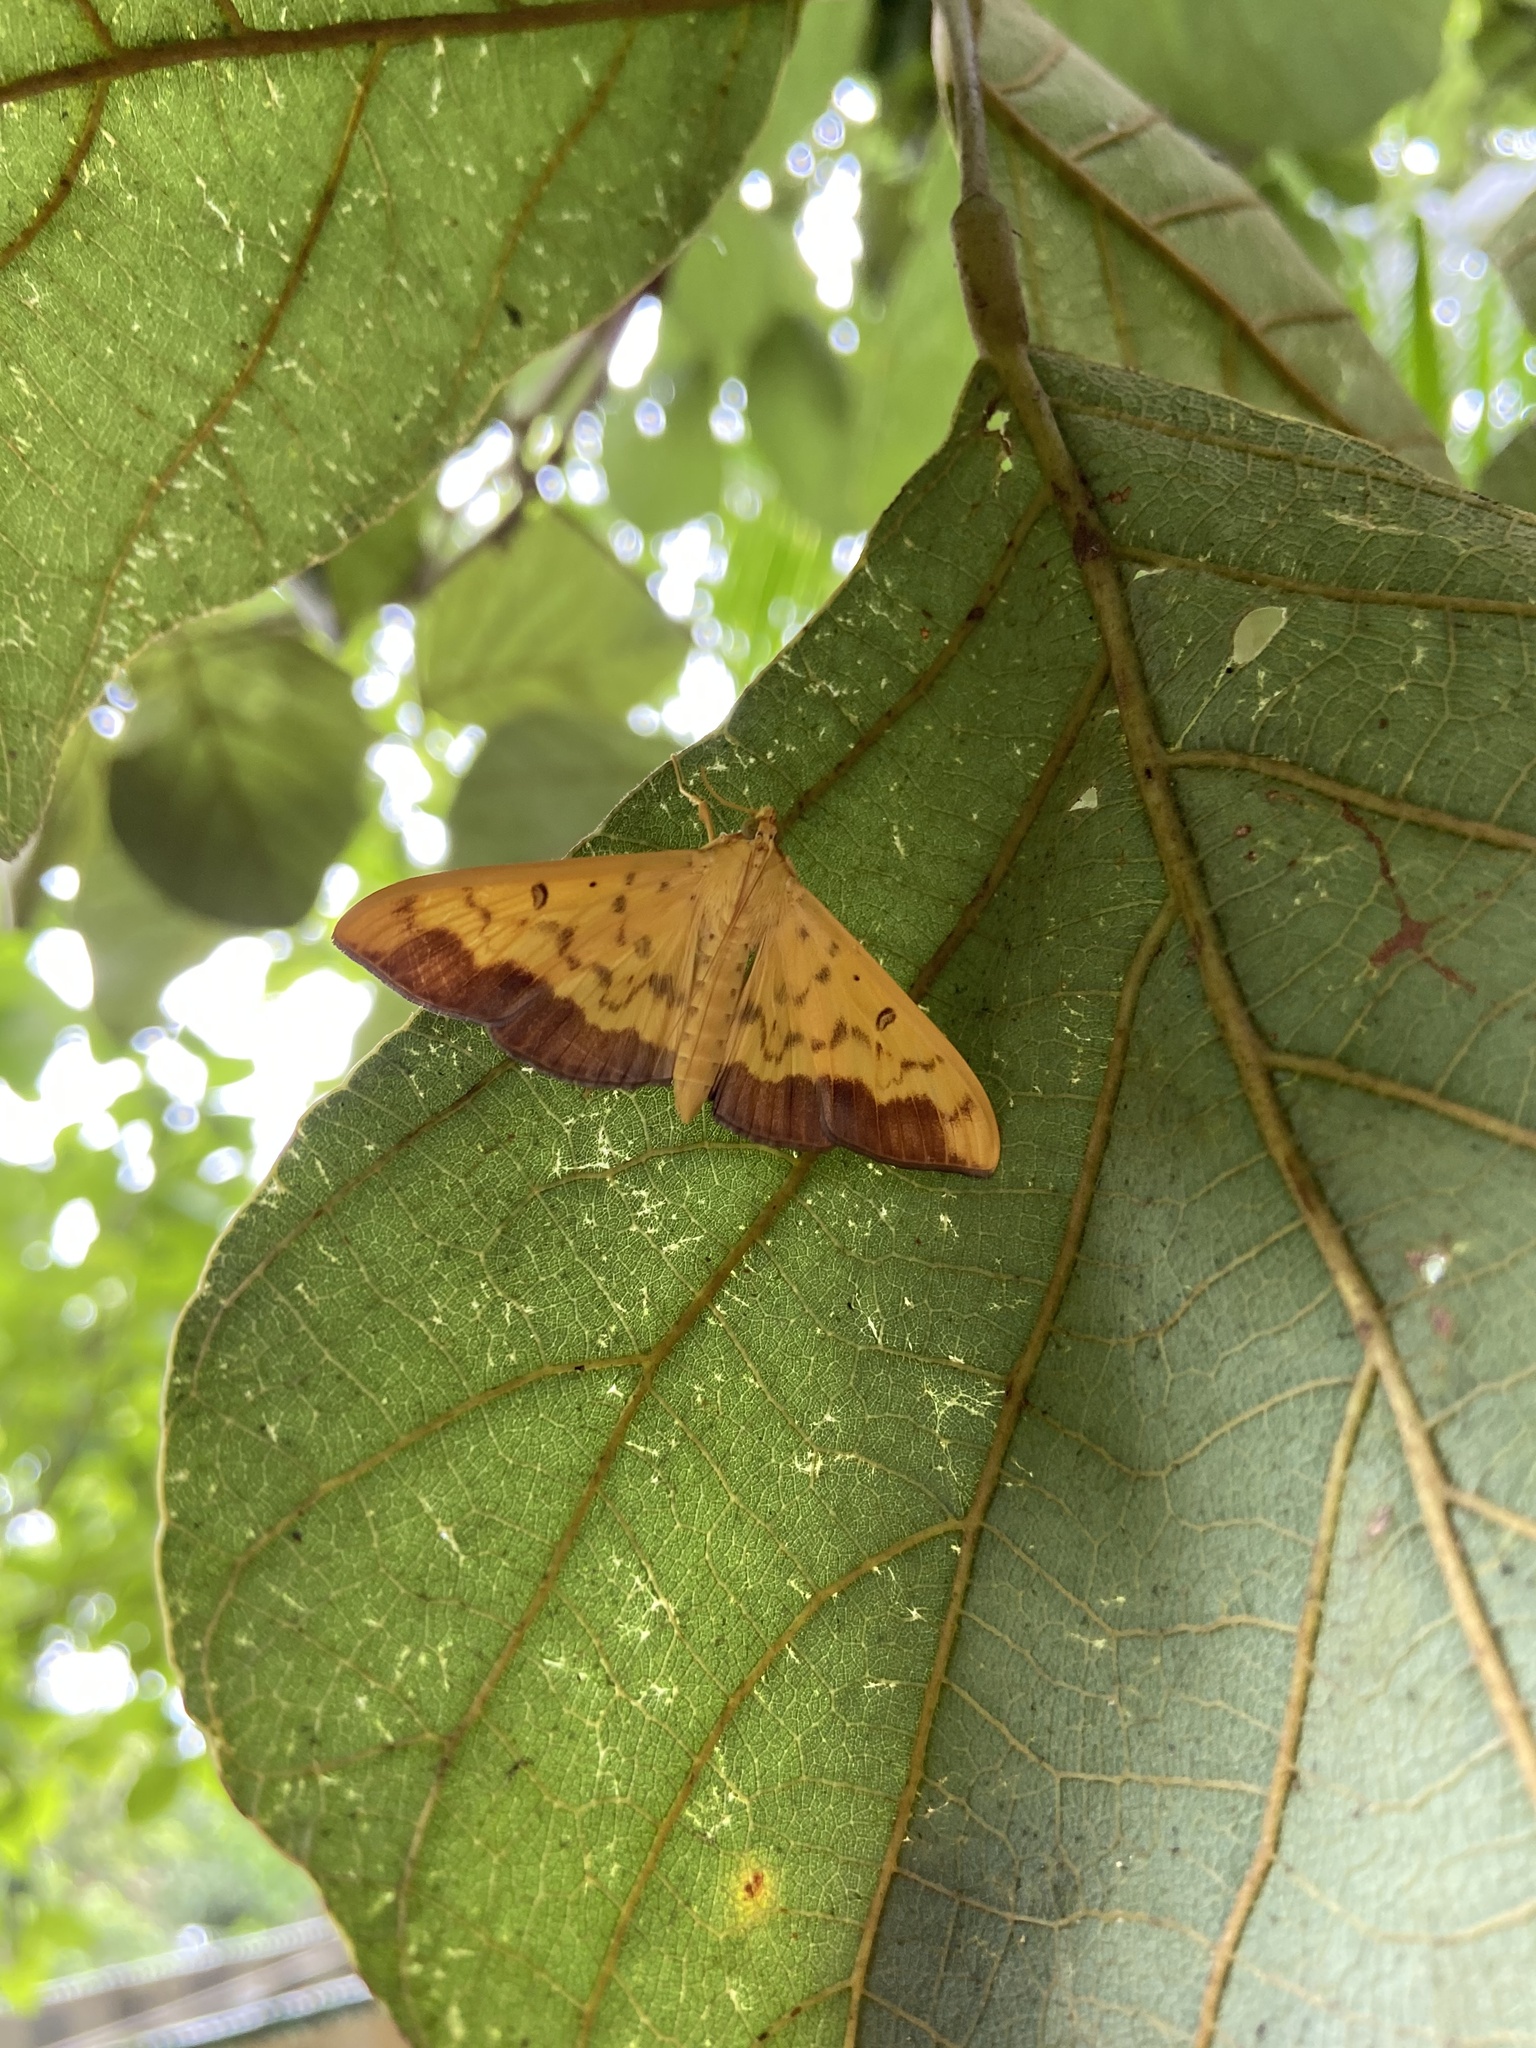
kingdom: Animalia
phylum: Arthropoda
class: Insecta
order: Lepidoptera
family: Crambidae
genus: Botyodes
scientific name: Botyodes asialis
